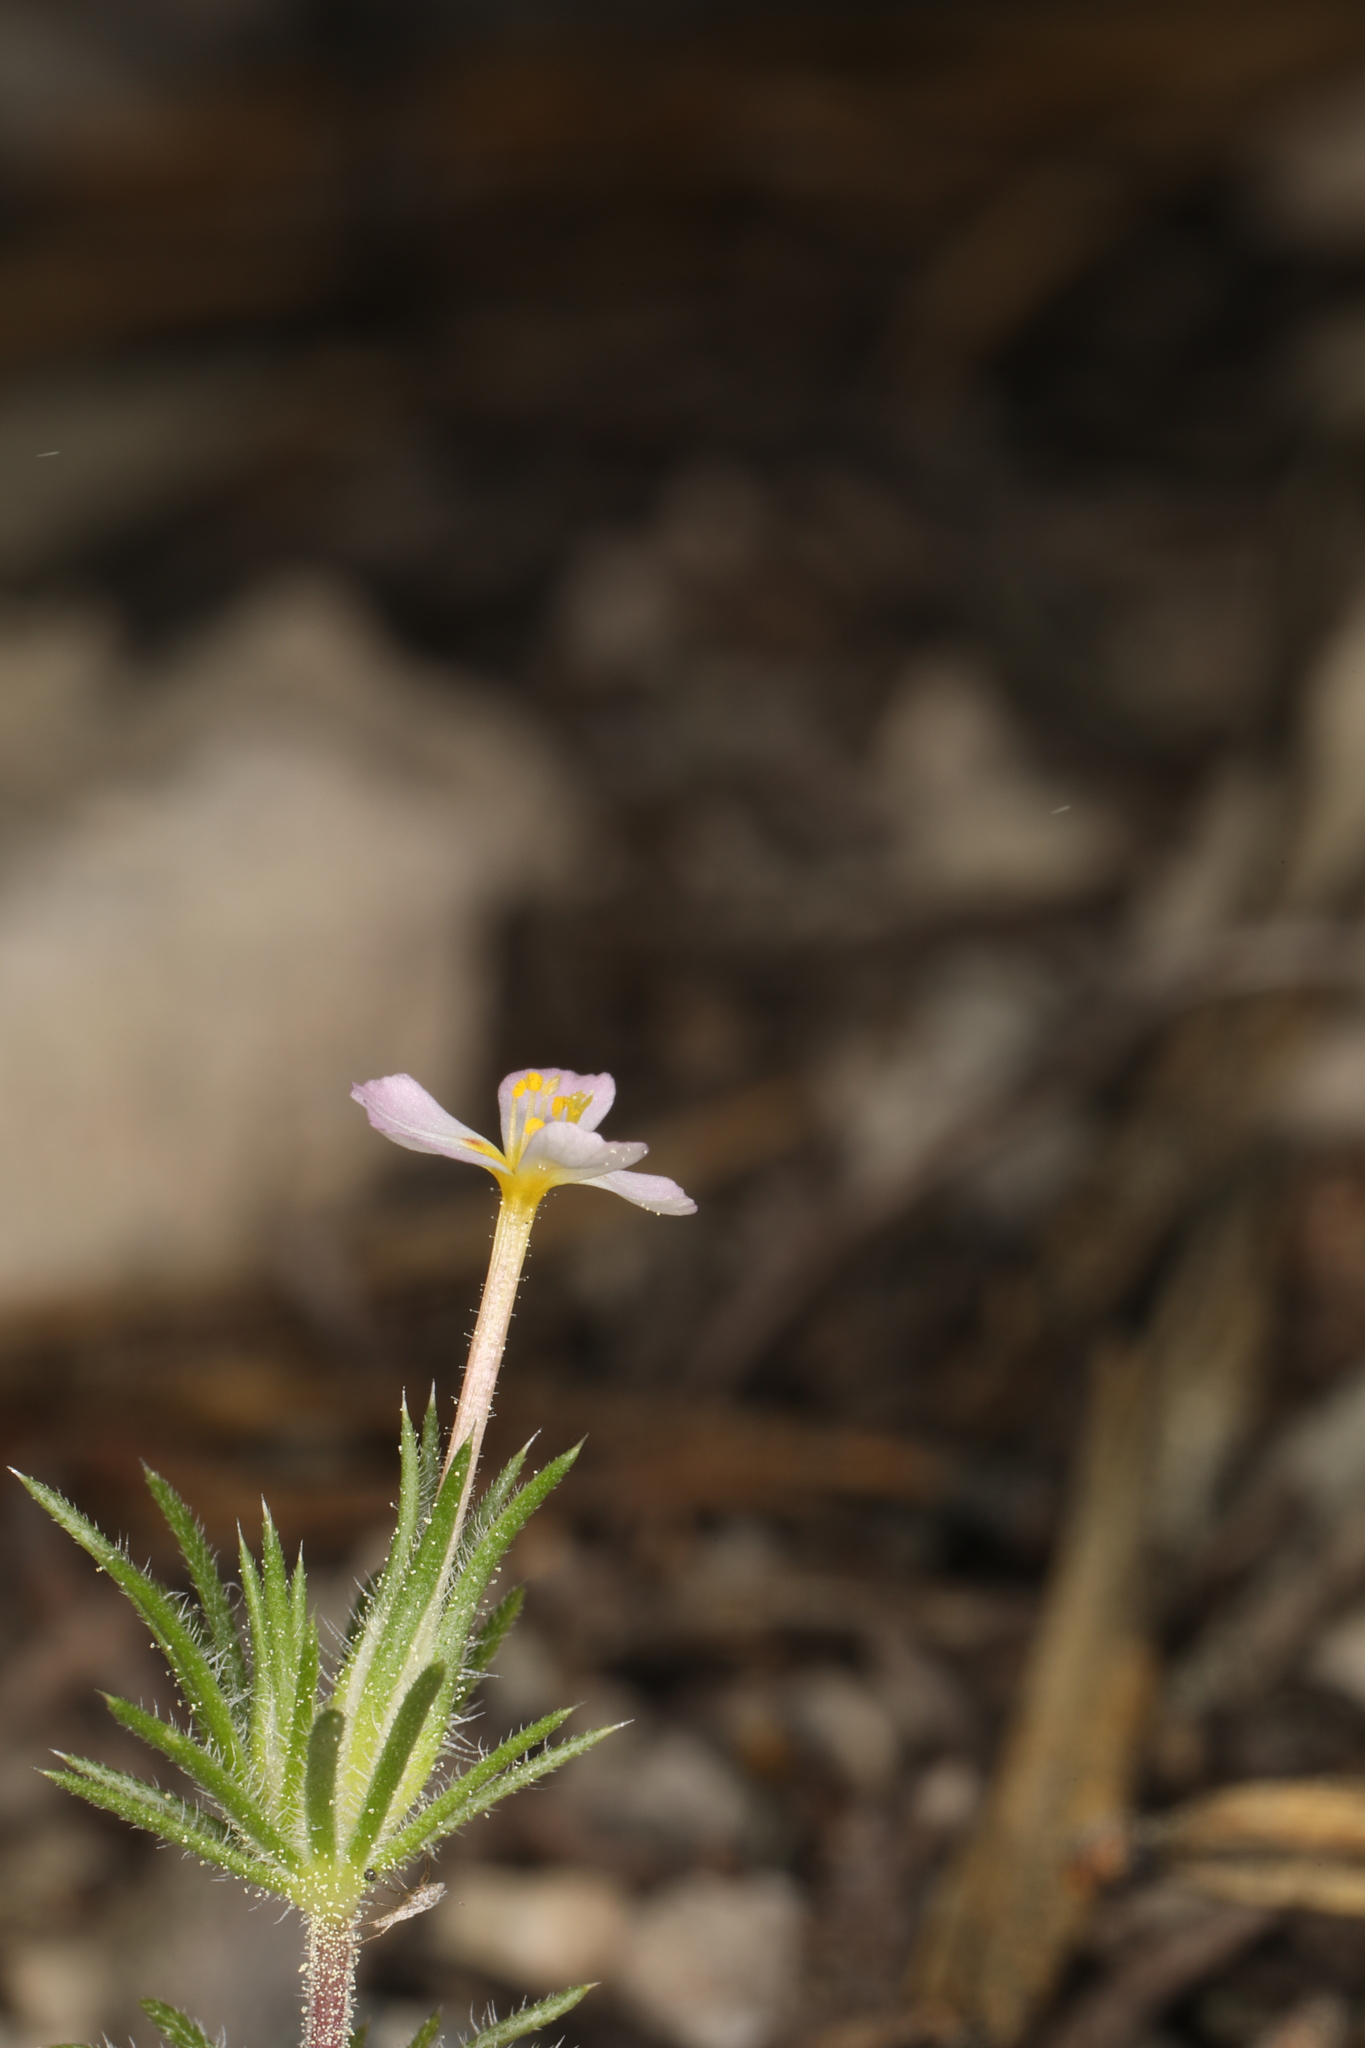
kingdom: Plantae
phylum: Tracheophyta
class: Magnoliopsida
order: Ericales
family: Polemoniaceae
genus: Leptosiphon
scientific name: Leptosiphon ciliatus
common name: Whiskerbrush
